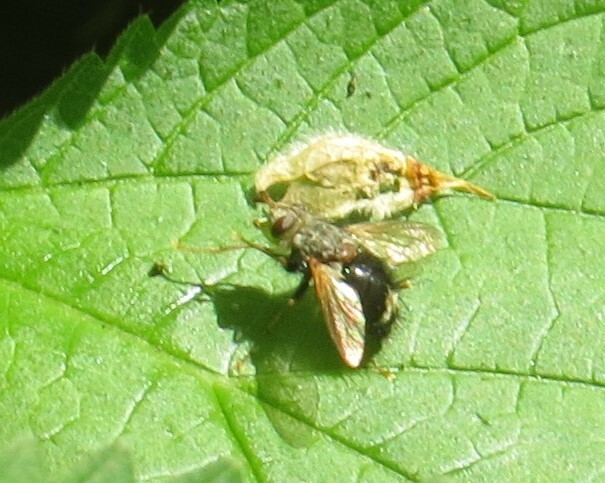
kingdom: Animalia
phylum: Arthropoda
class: Insecta
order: Diptera
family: Tachinidae
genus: Epalpus
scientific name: Epalpus signifer
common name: Early tachinid fly
